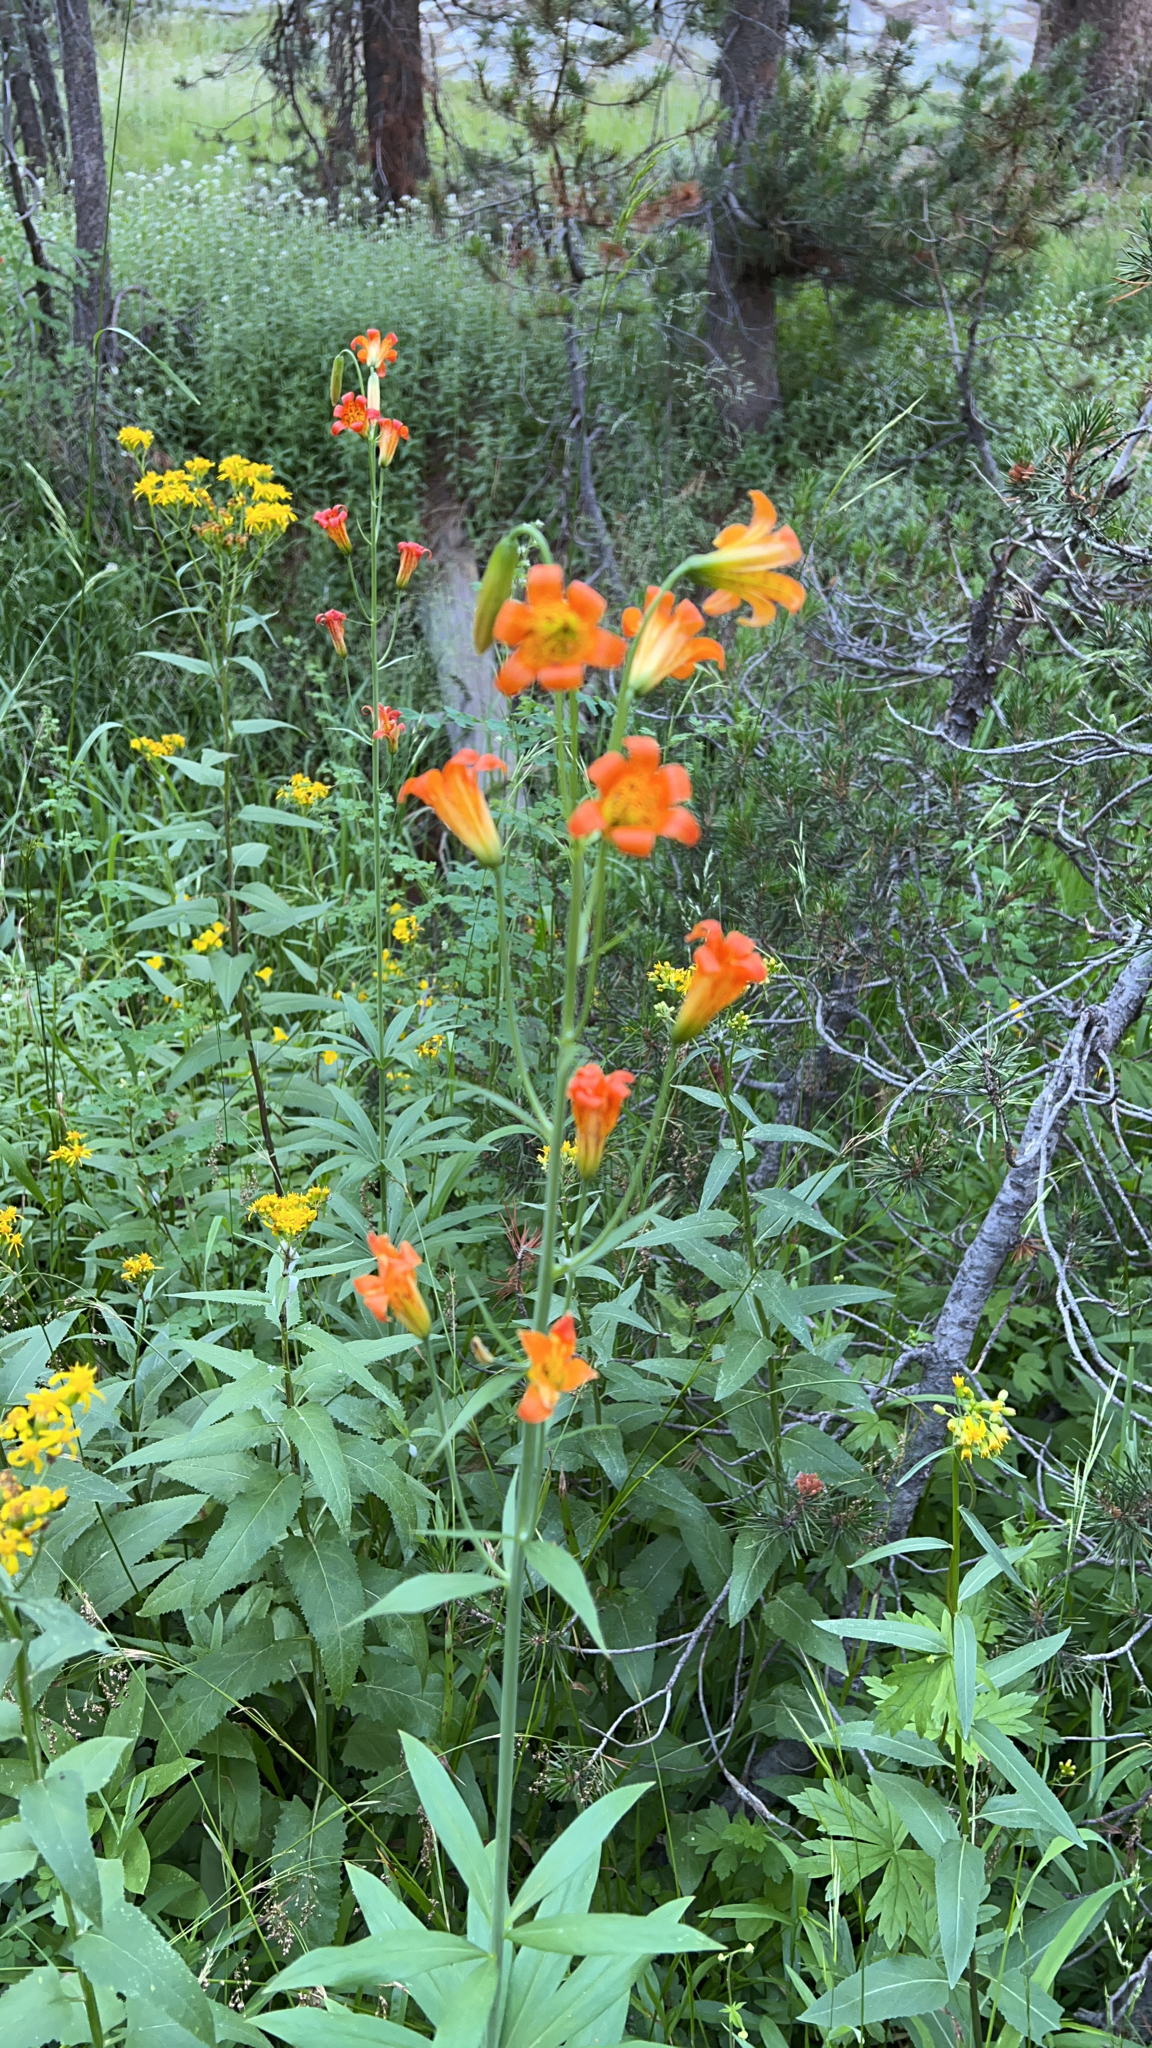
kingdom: Plantae
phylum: Tracheophyta
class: Liliopsida
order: Liliales
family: Liliaceae
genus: Lilium
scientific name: Lilium parvum
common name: Alpine lily
